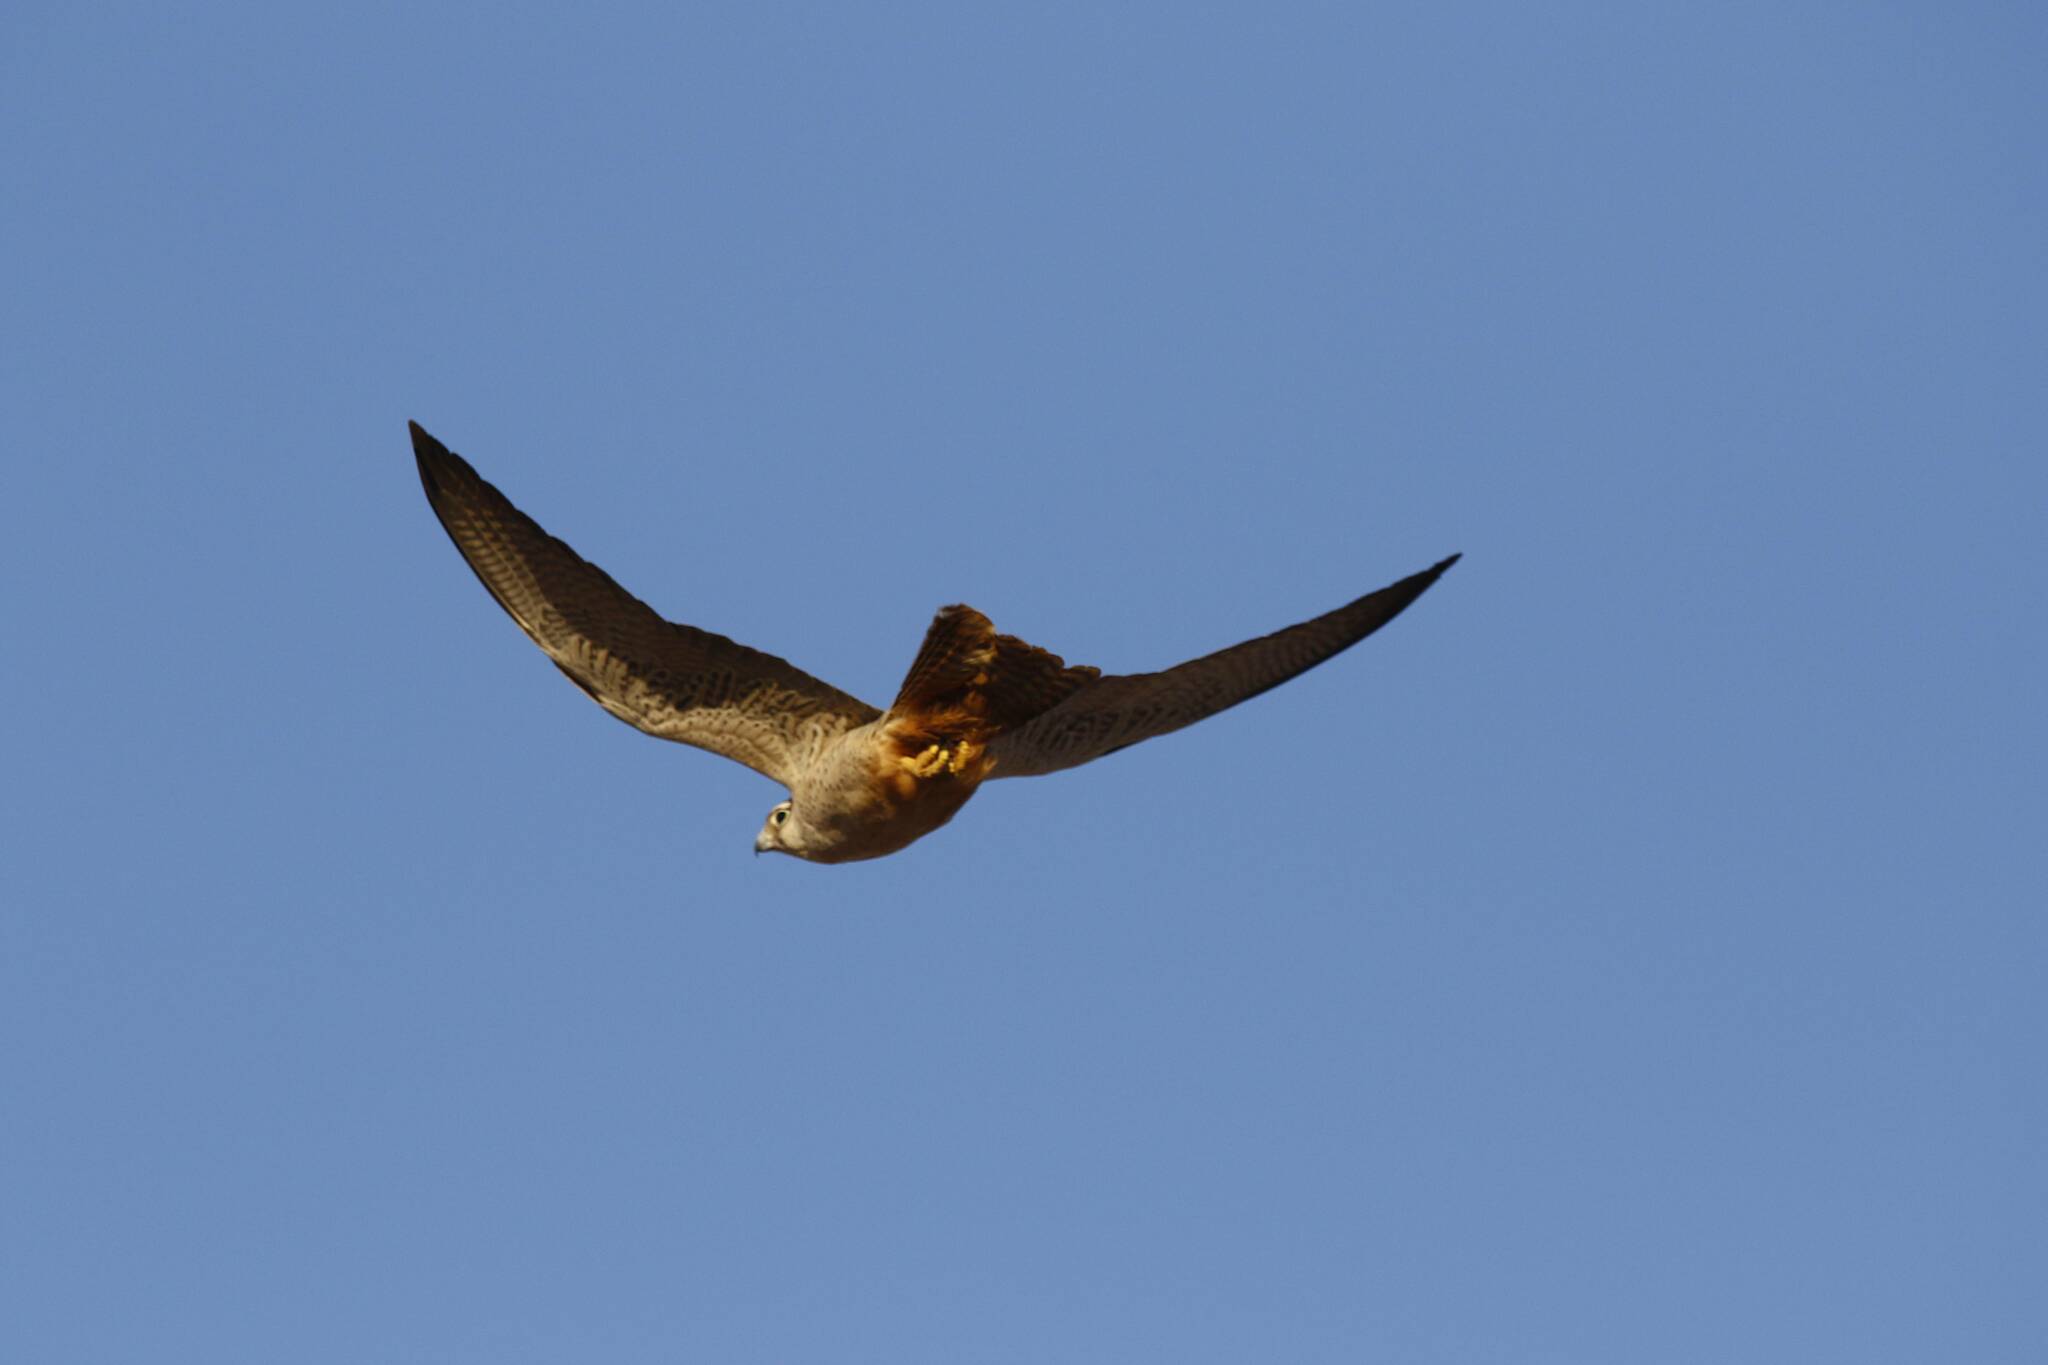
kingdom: Animalia
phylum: Chordata
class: Aves
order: Falconiformes
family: Falconidae
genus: Falco
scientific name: Falco biarmicus
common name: Lanner falcon
